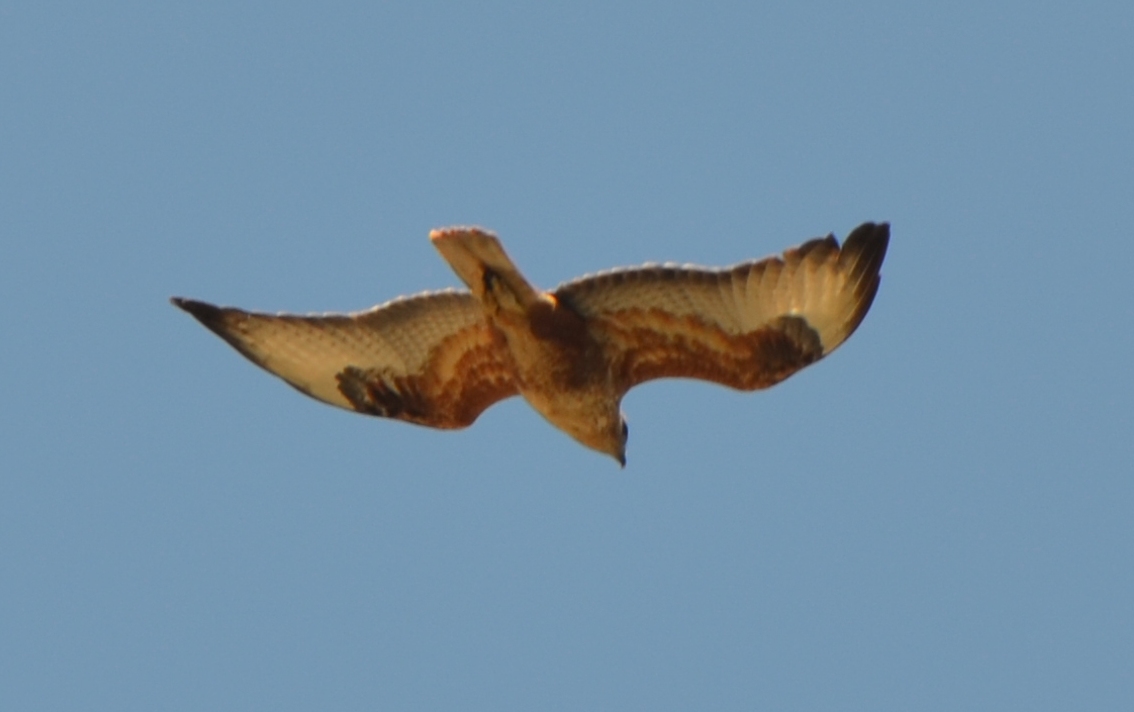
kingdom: Animalia
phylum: Chordata
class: Aves
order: Accipitriformes
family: Accipitridae
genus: Buteo
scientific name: Buteo rufinus
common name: Long-legged buzzard
